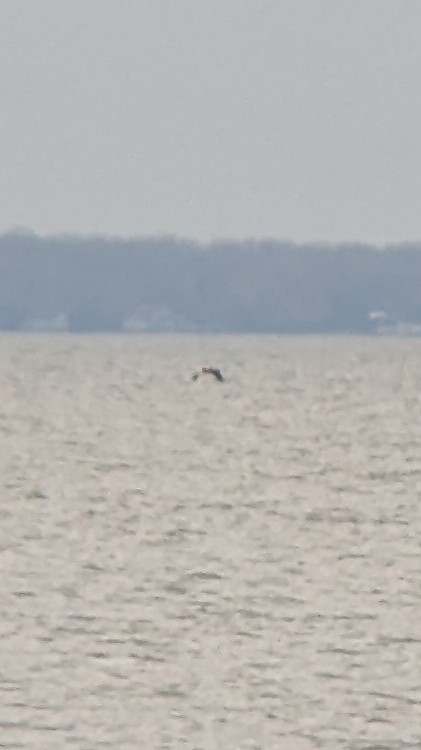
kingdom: Animalia
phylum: Chordata
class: Aves
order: Pelecaniformes
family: Pelecanidae
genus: Pelecanus
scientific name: Pelecanus occidentalis
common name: Brown pelican
